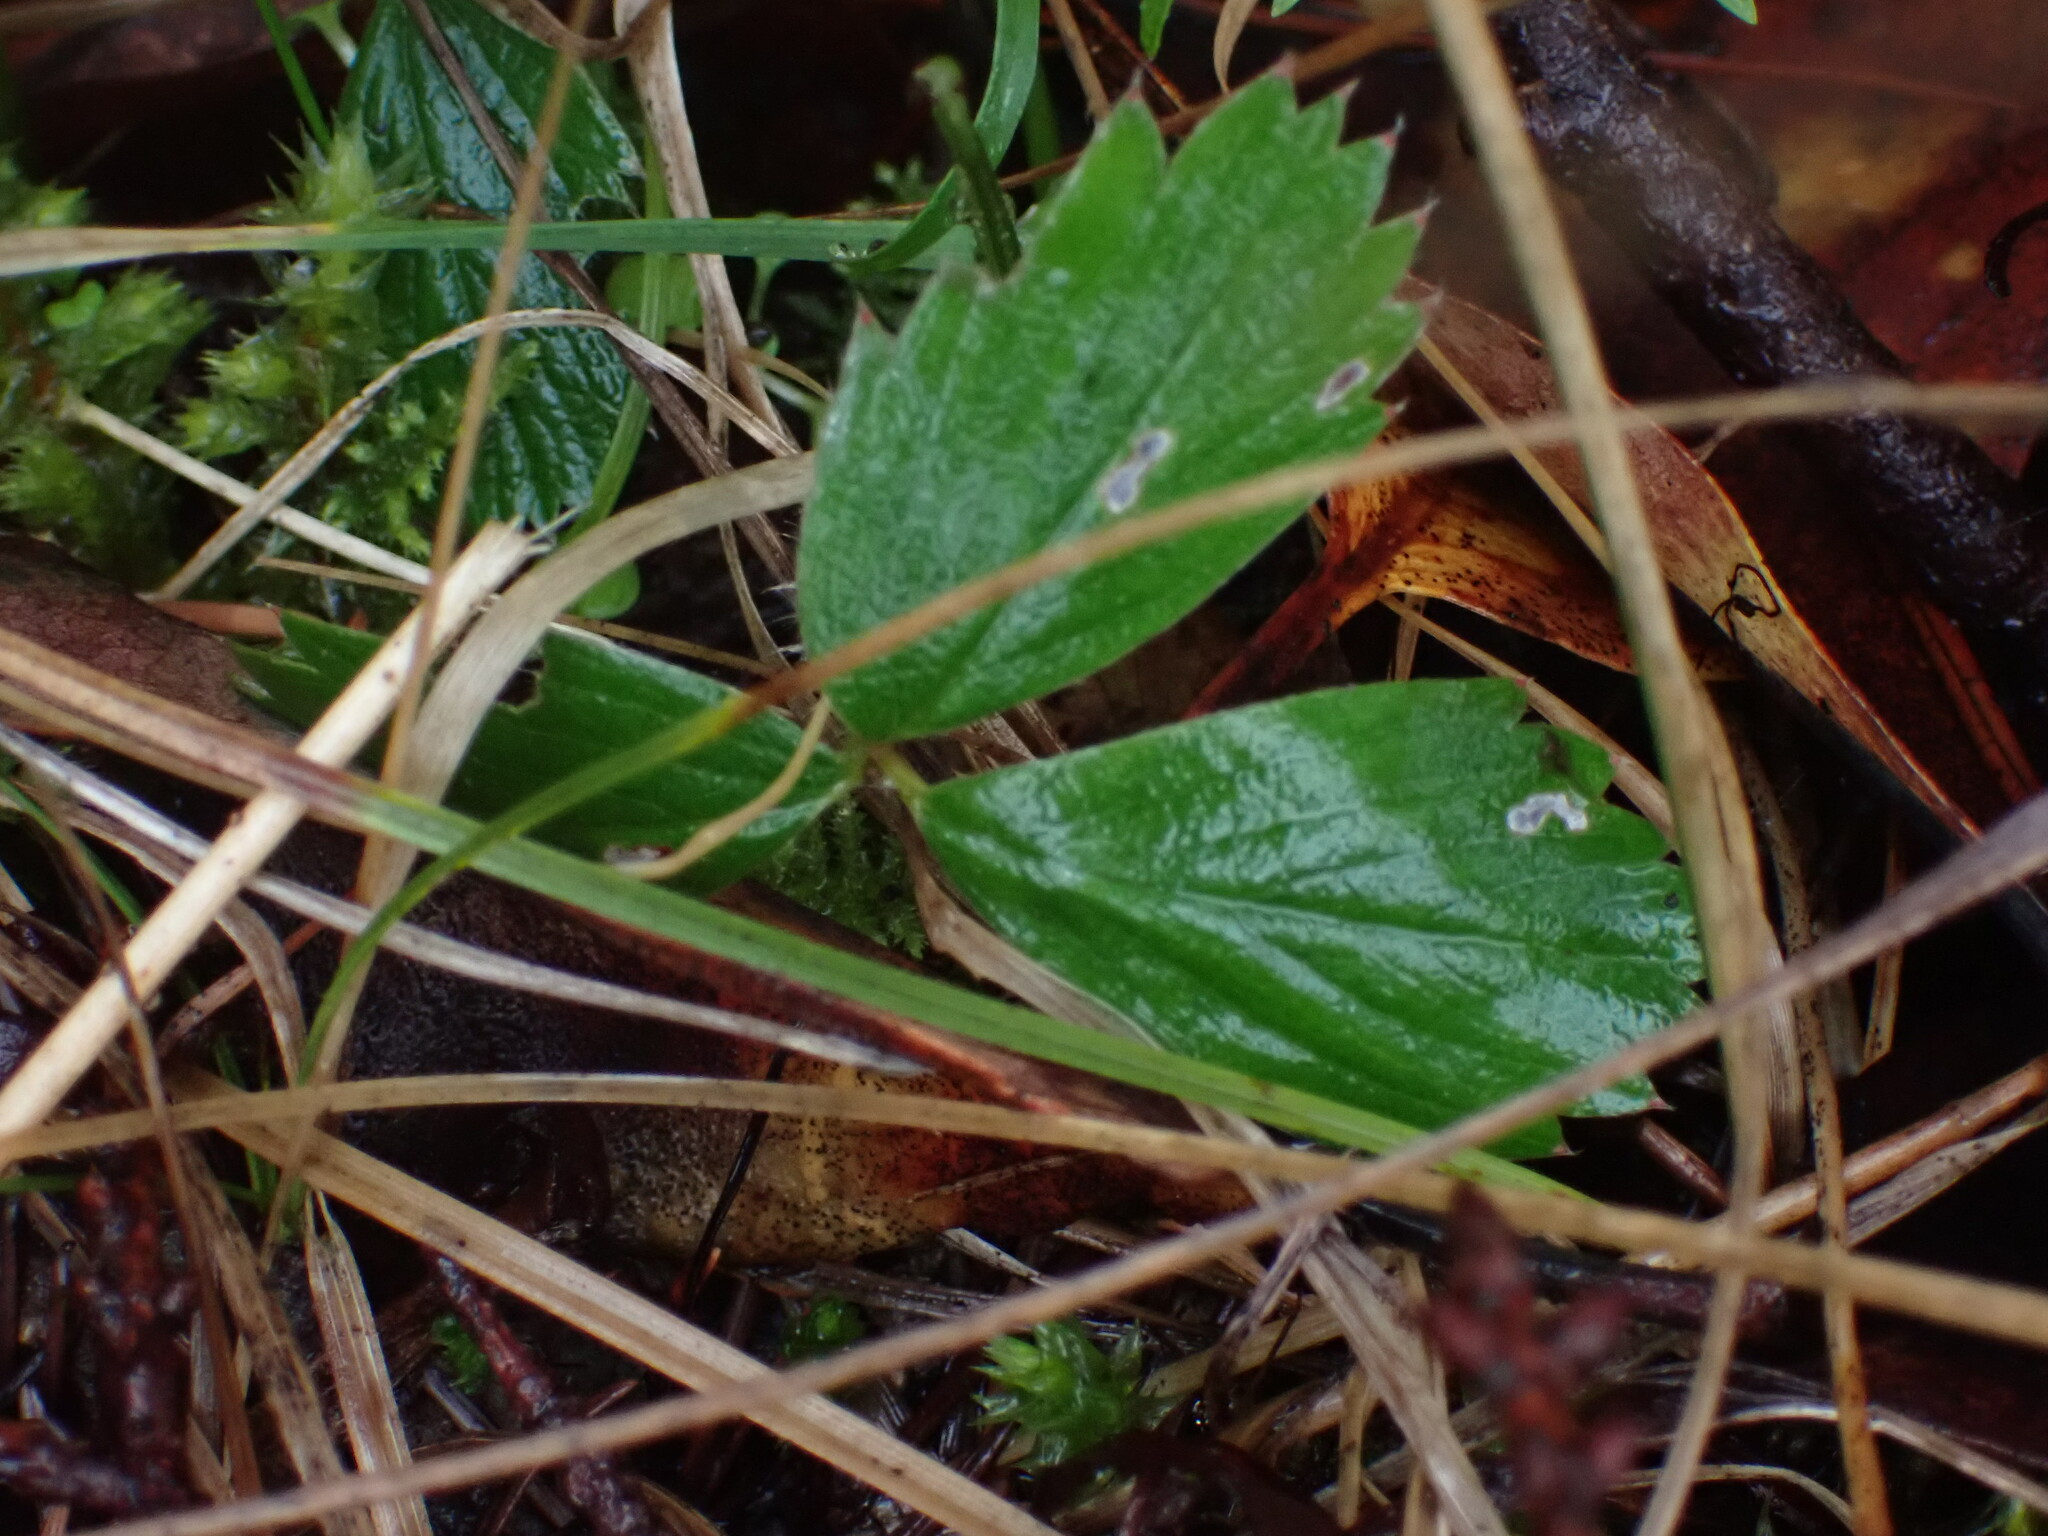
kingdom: Plantae
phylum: Tracheophyta
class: Magnoliopsida
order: Rosales
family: Rosaceae
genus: Fragaria
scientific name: Fragaria virginiana
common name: Thickleaved wild strawberry
